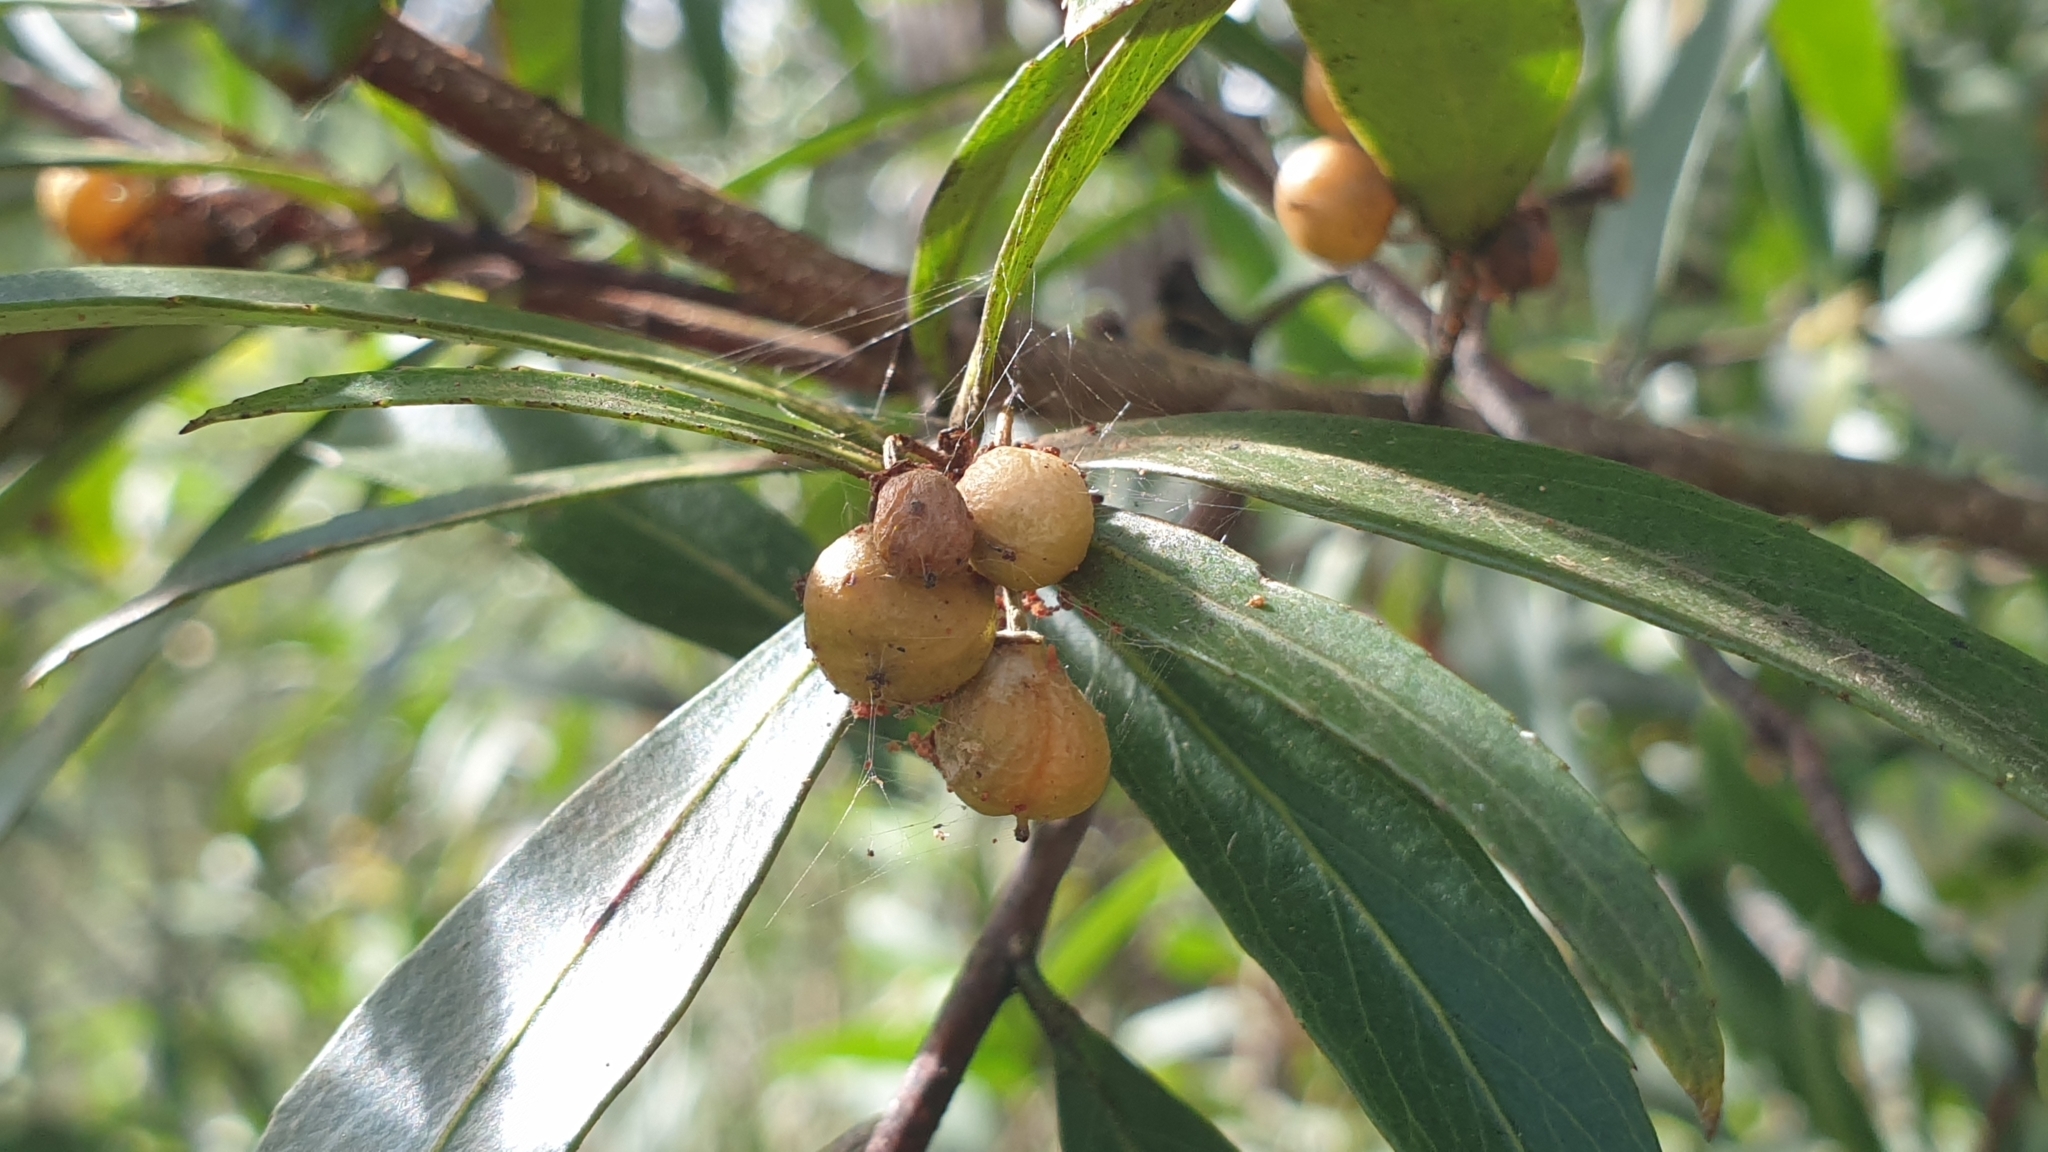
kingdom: Plantae
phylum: Tracheophyta
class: Magnoliopsida
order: Celastrales
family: Celastraceae
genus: Denhamia
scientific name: Denhamia silvestris
